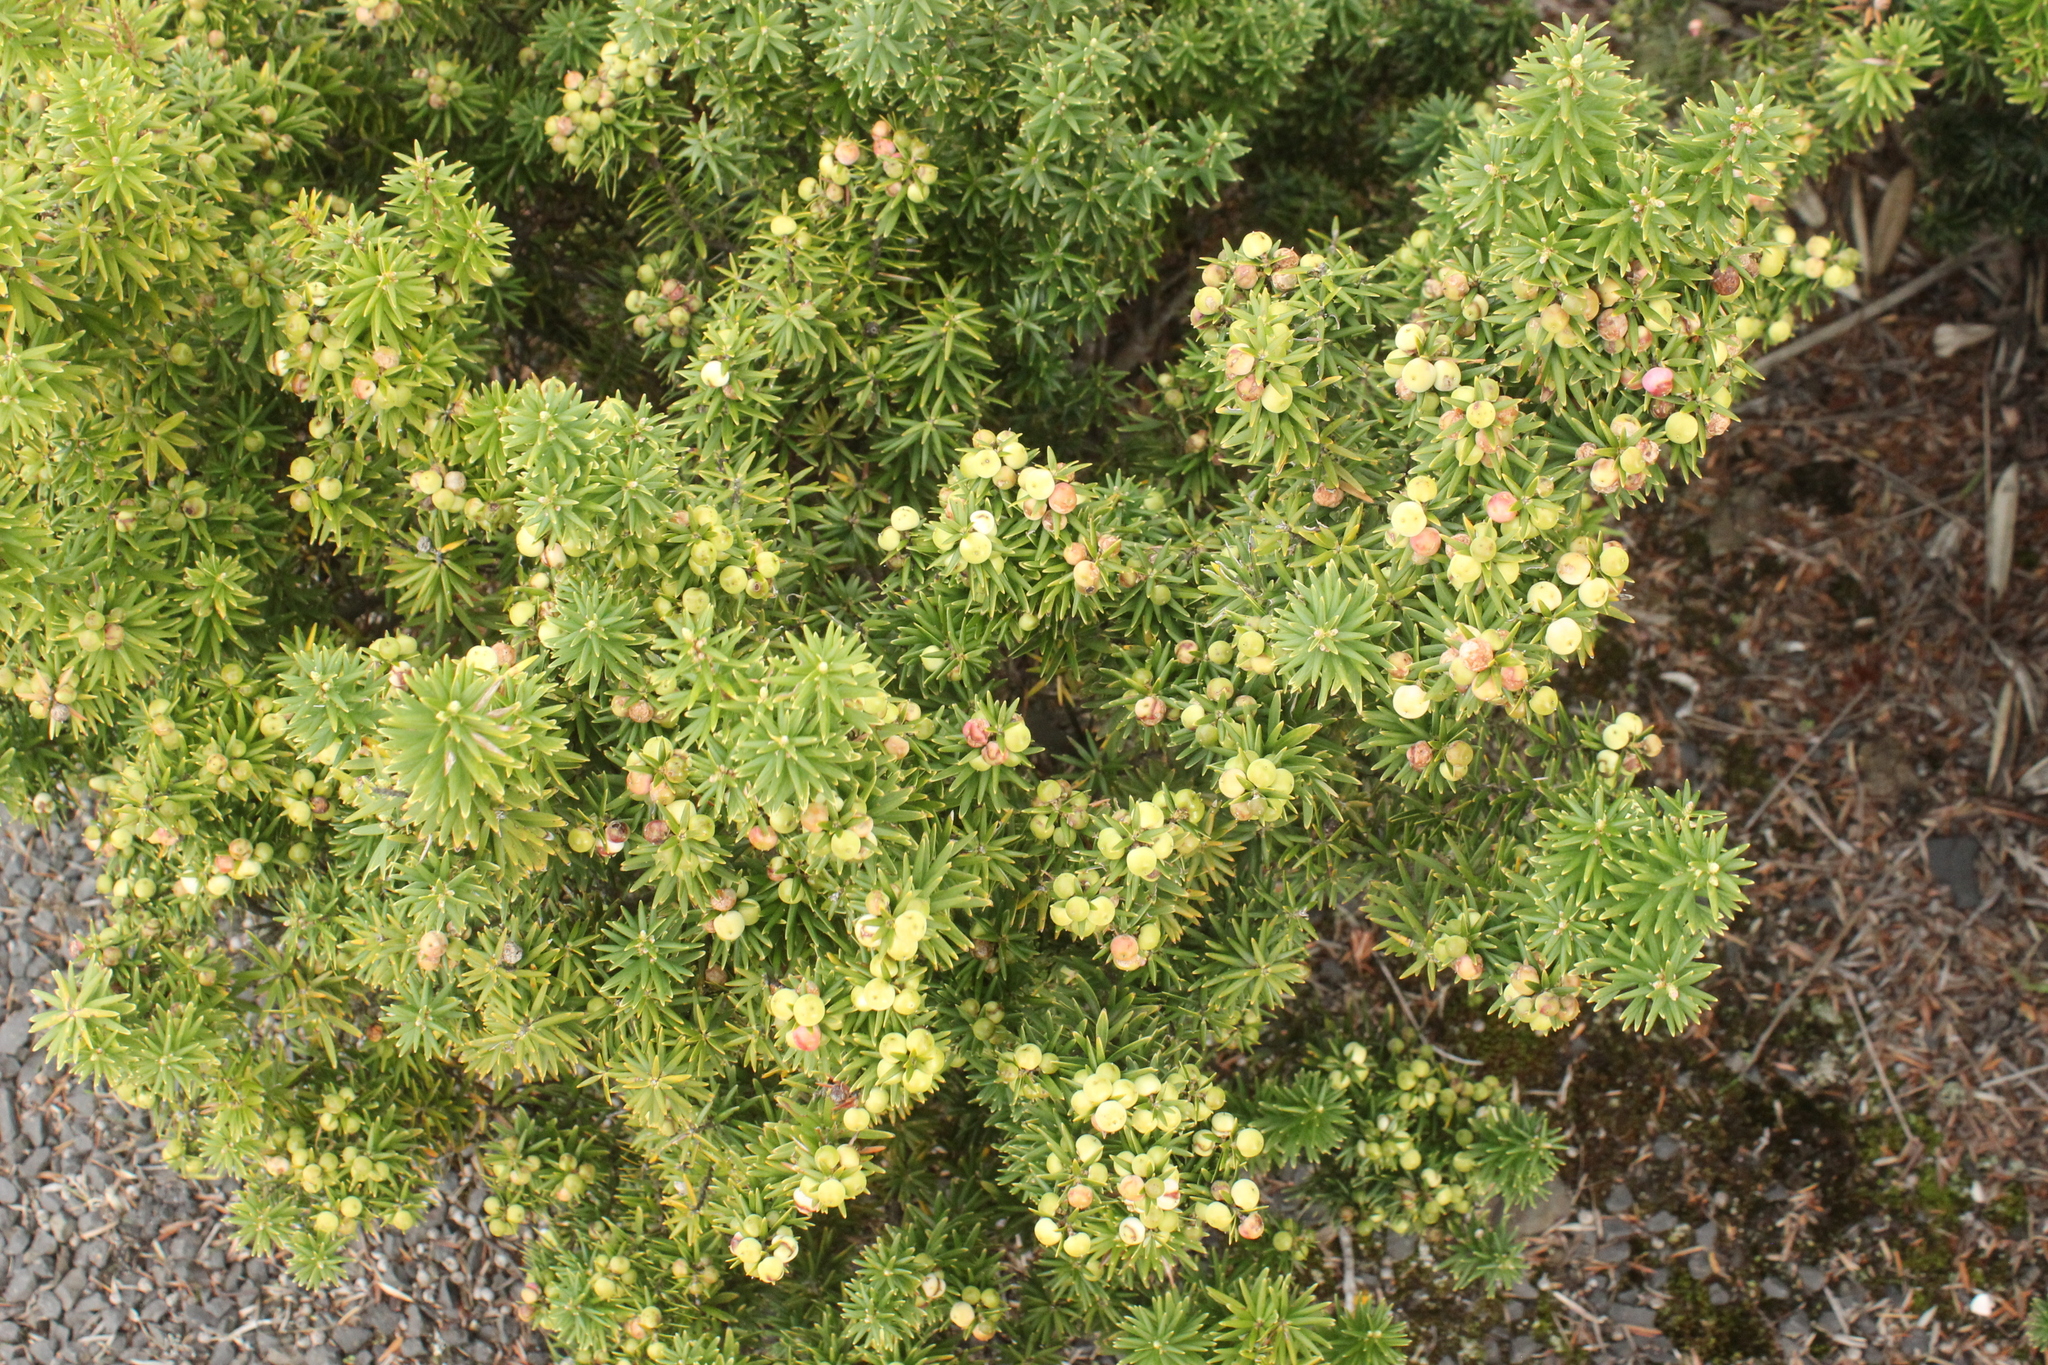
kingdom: Plantae
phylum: Tracheophyta
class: Magnoliopsida
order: Ericales
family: Ericaceae
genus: Leptecophylla
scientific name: Leptecophylla robusta
